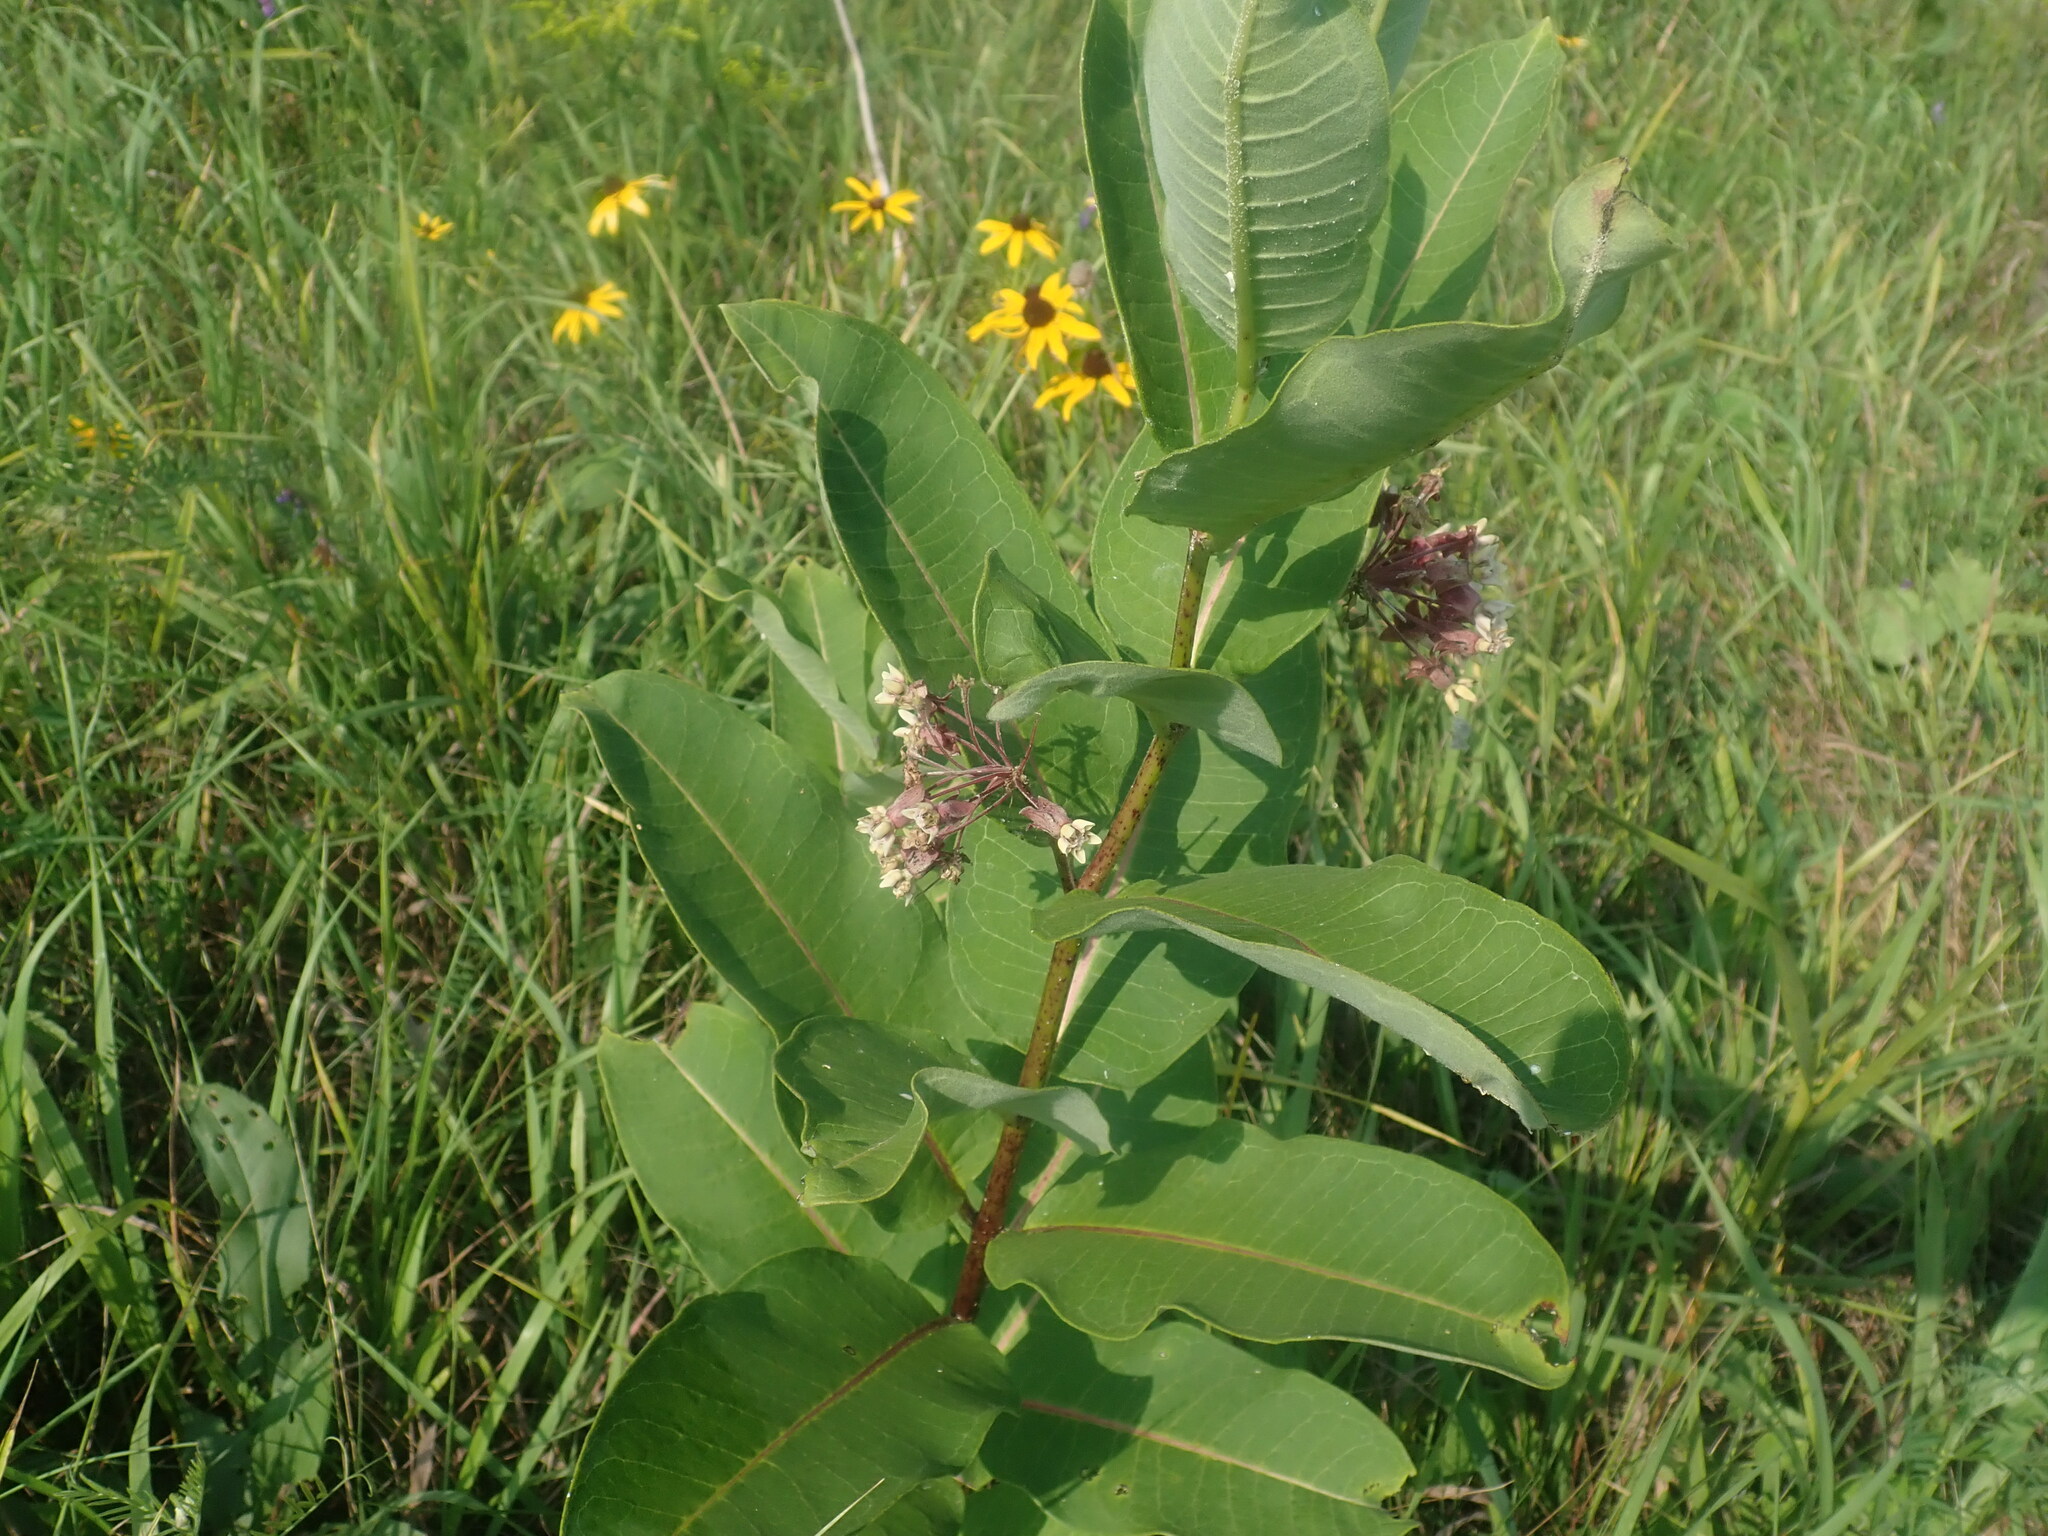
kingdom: Plantae
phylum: Tracheophyta
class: Magnoliopsida
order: Gentianales
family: Apocynaceae
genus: Asclepias
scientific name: Asclepias syriaca
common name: Common milkweed
